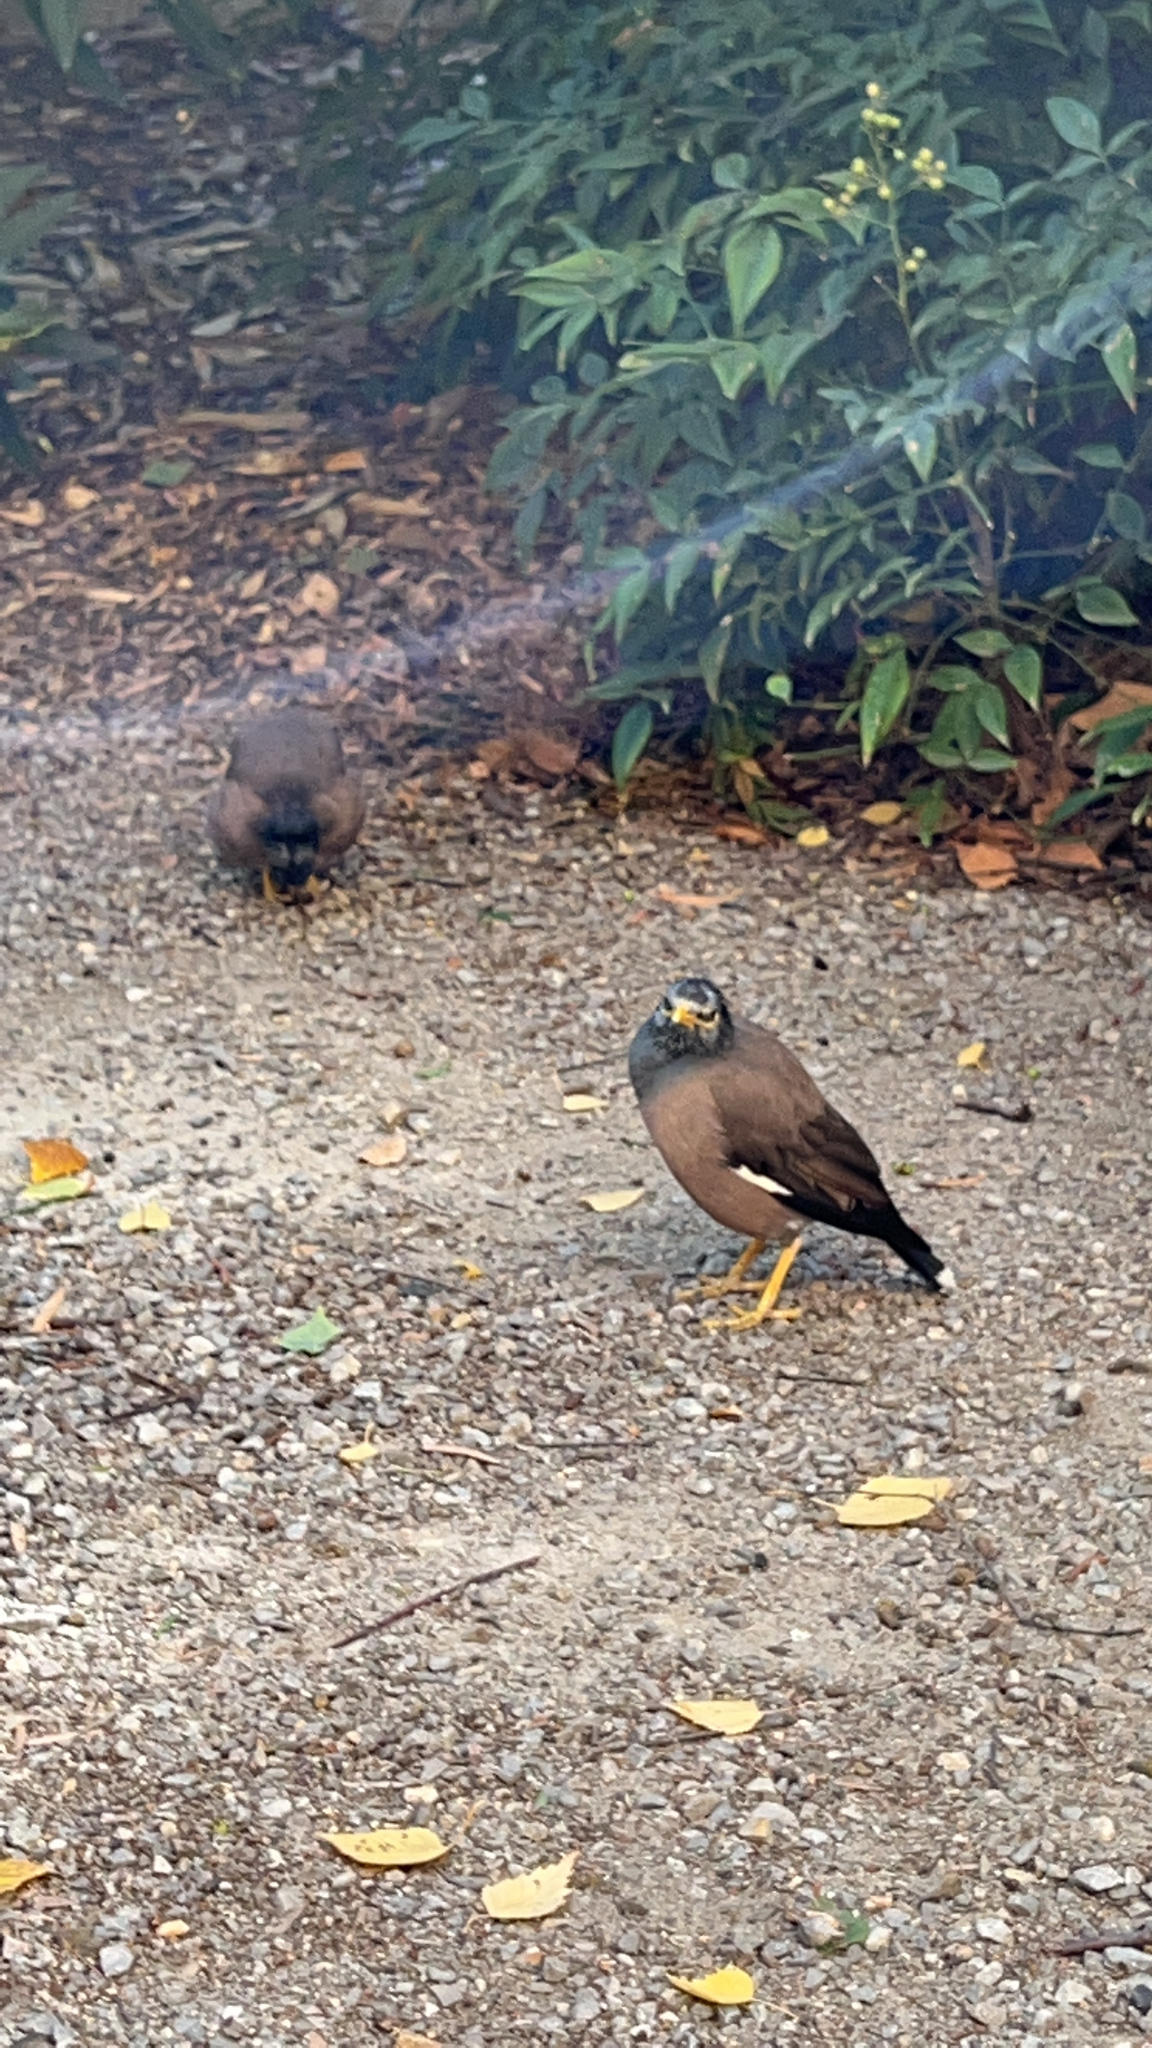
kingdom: Animalia
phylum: Chordata
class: Aves
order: Passeriformes
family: Sturnidae
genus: Acridotheres
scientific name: Acridotheres tristis
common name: Common myna
